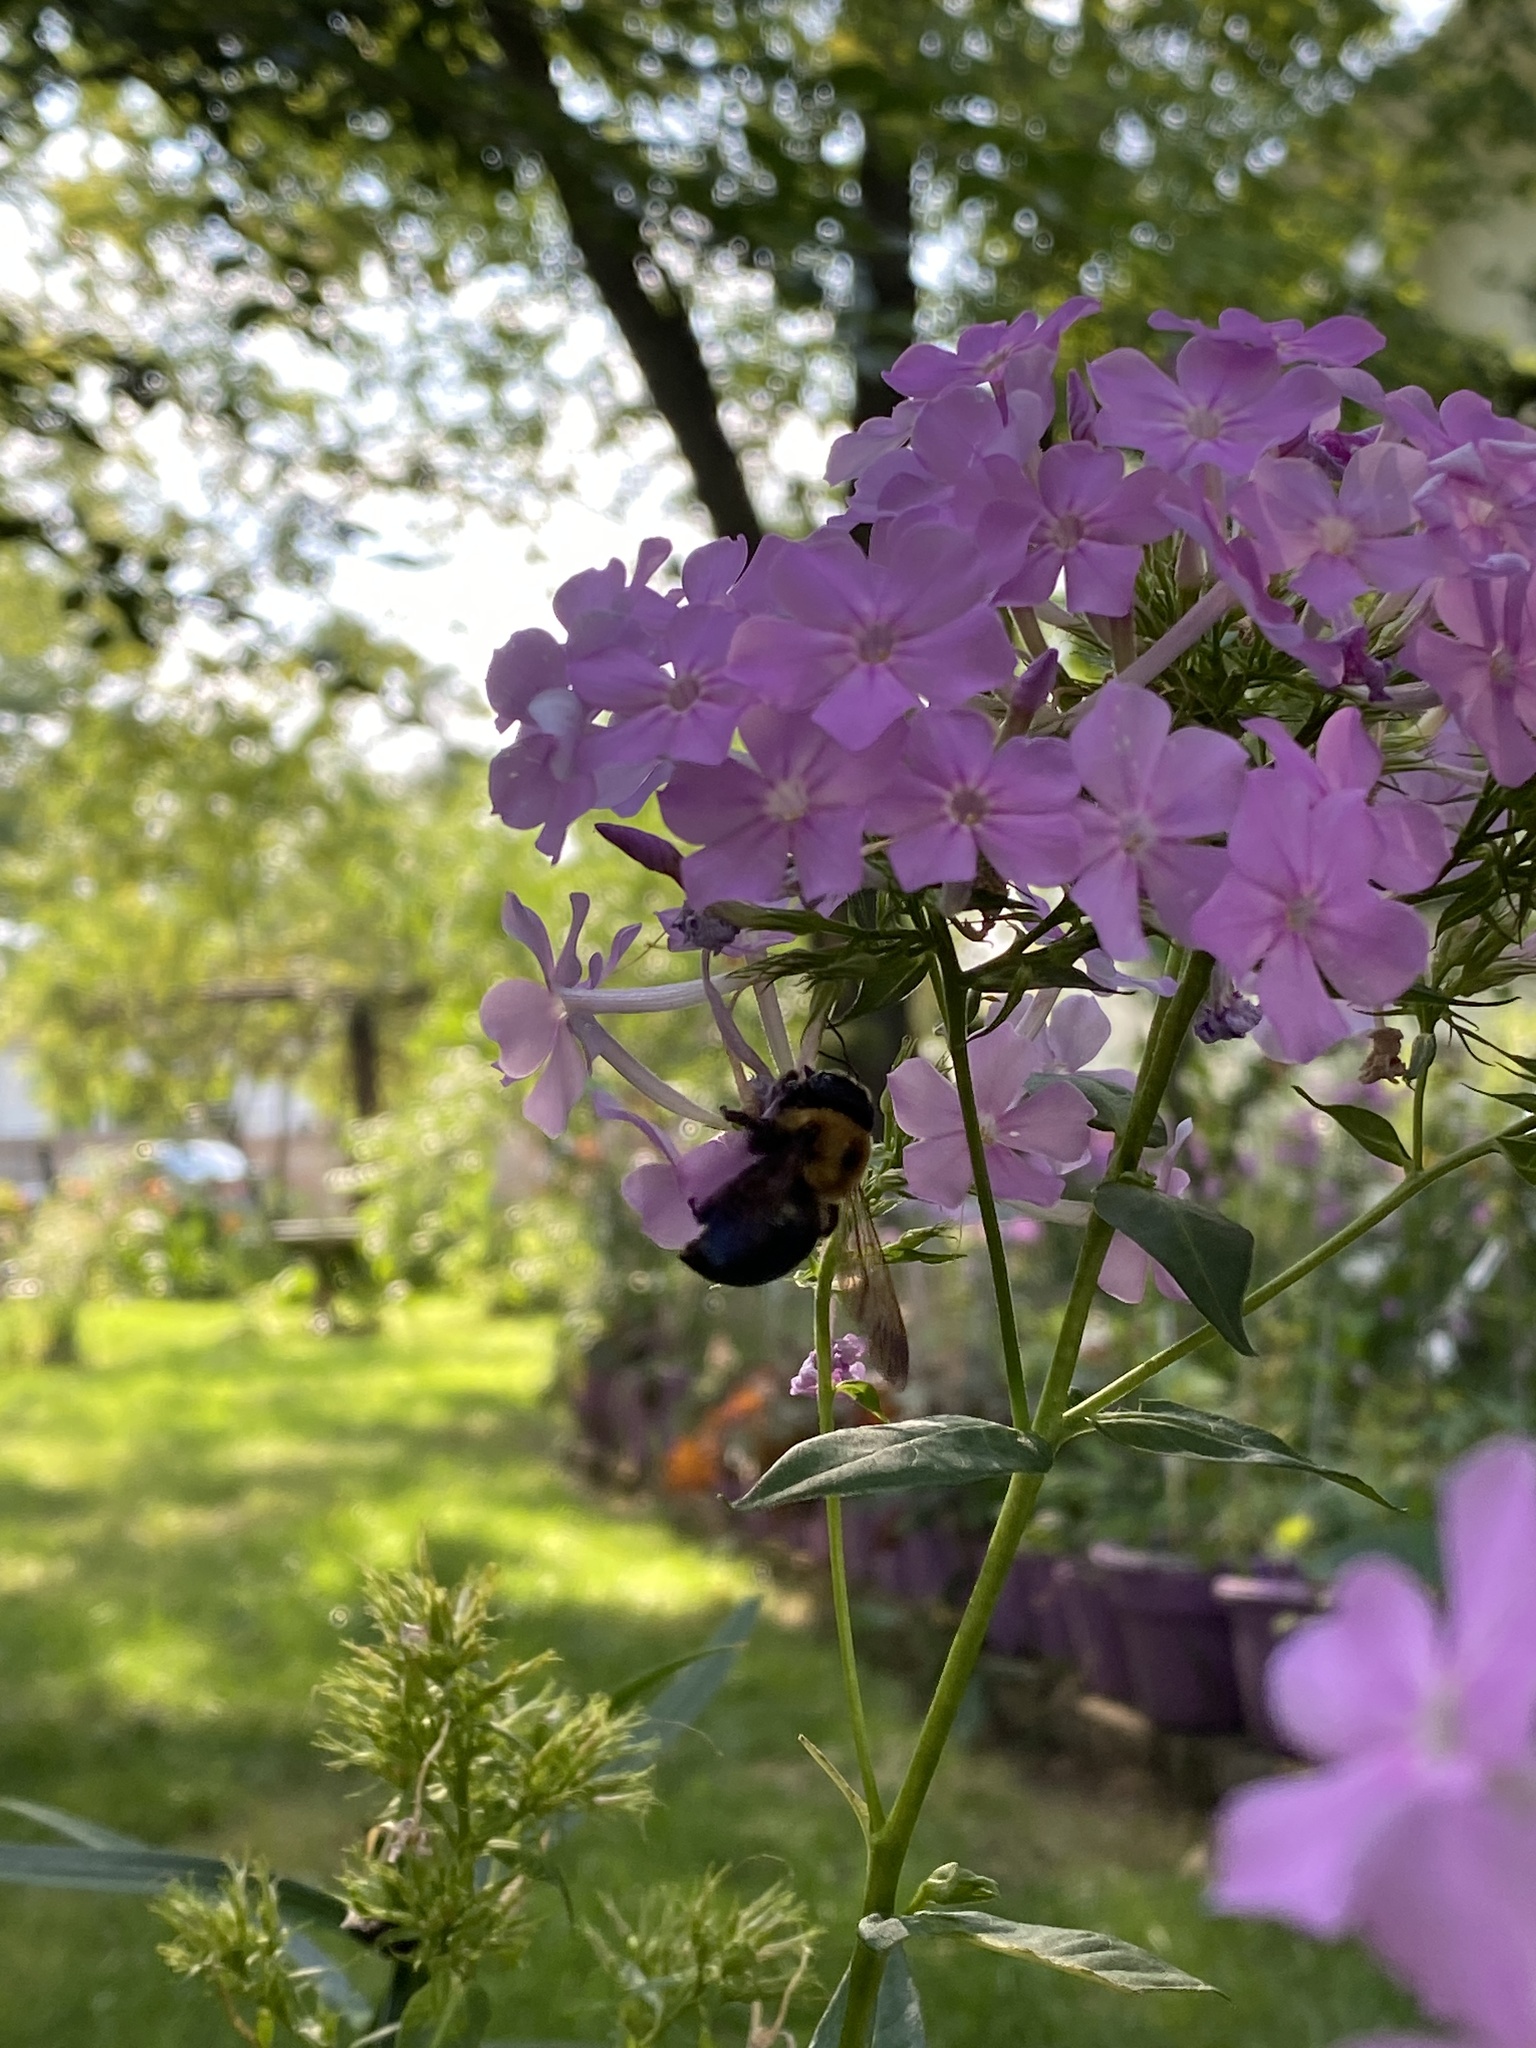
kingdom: Animalia
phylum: Arthropoda
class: Insecta
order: Hymenoptera
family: Apidae
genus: Xylocopa
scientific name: Xylocopa virginica
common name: Carpenter bee
